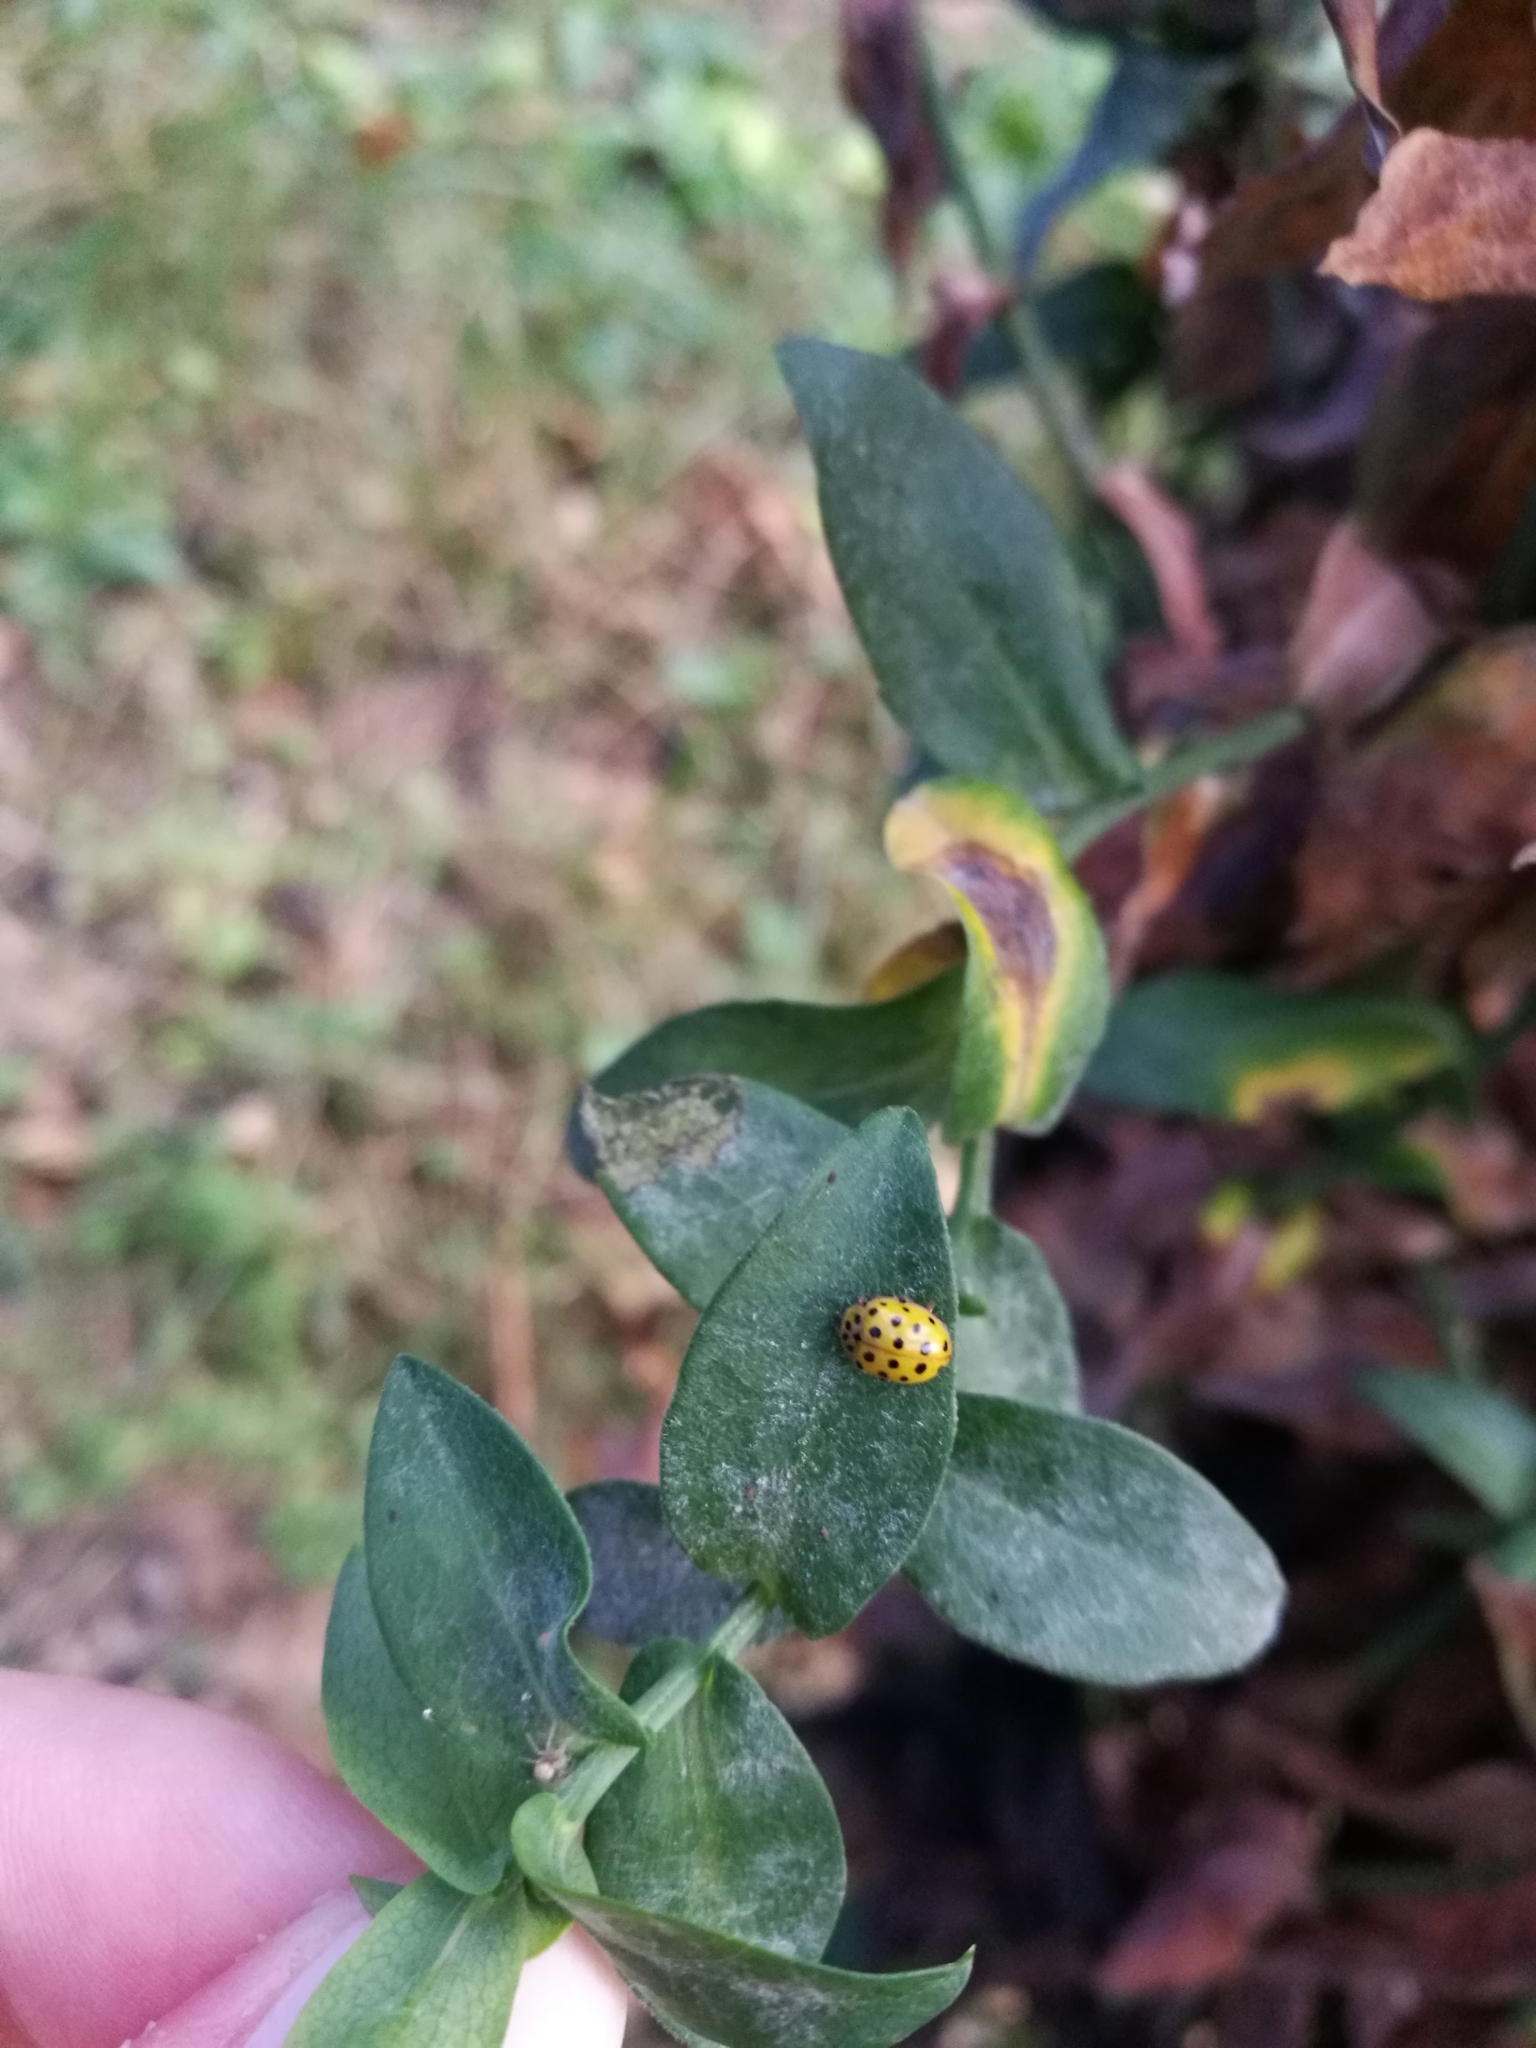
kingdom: Animalia
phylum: Arthropoda
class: Insecta
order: Coleoptera
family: Coccinellidae
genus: Psyllobora
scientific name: Psyllobora vigintiduopunctata
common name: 22-spot ladybird
